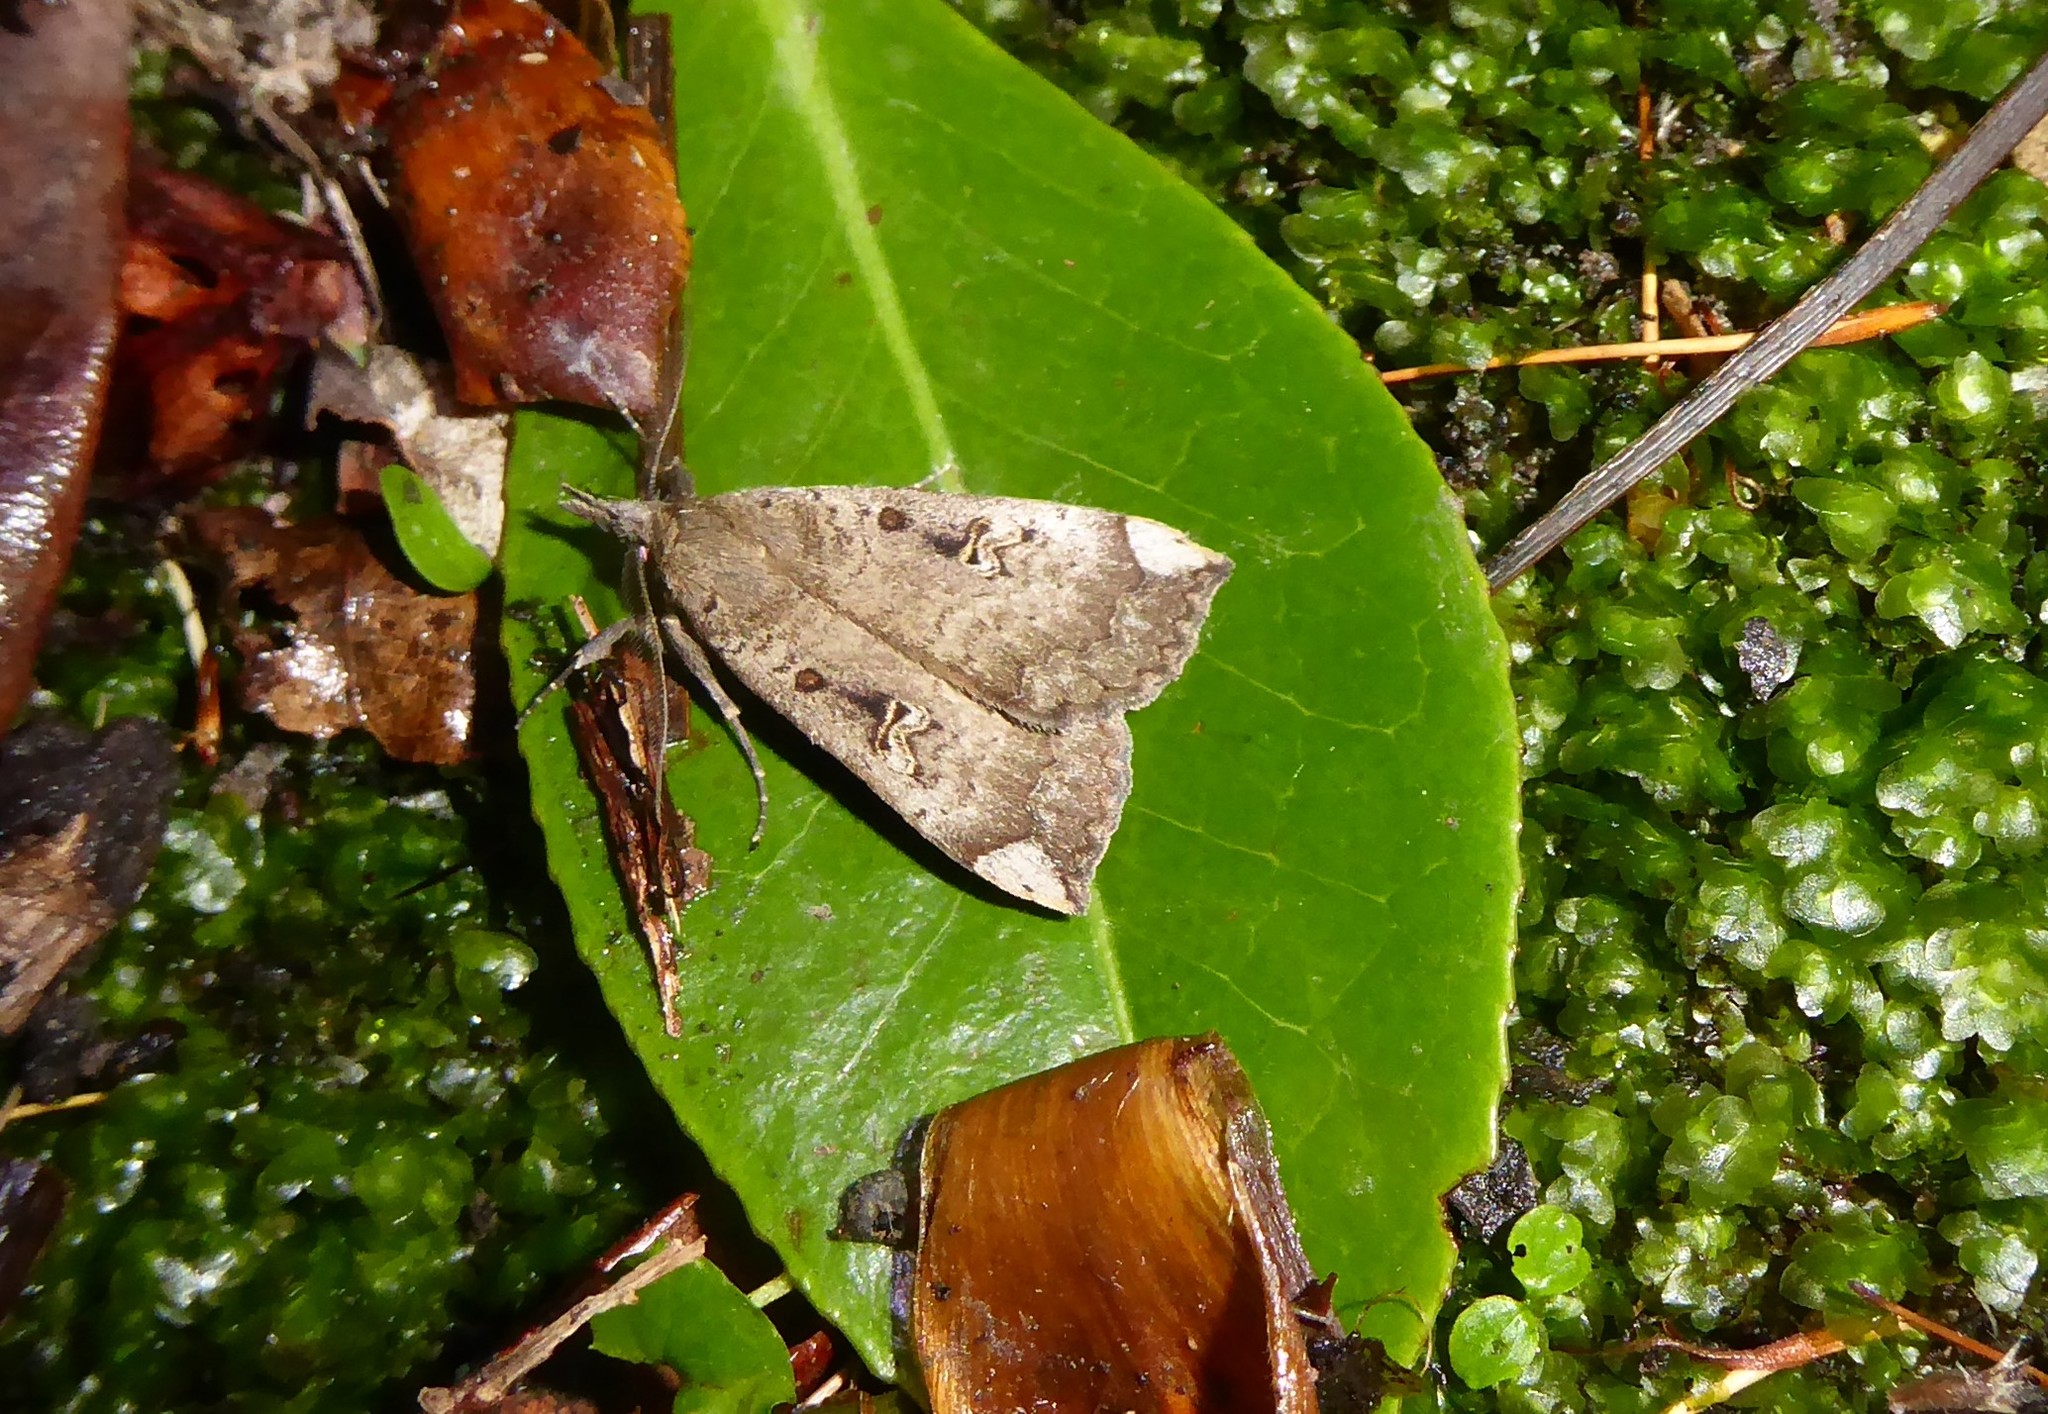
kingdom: Animalia
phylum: Arthropoda
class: Insecta
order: Lepidoptera
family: Erebidae
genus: Rhapsa
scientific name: Rhapsa scotosialis
